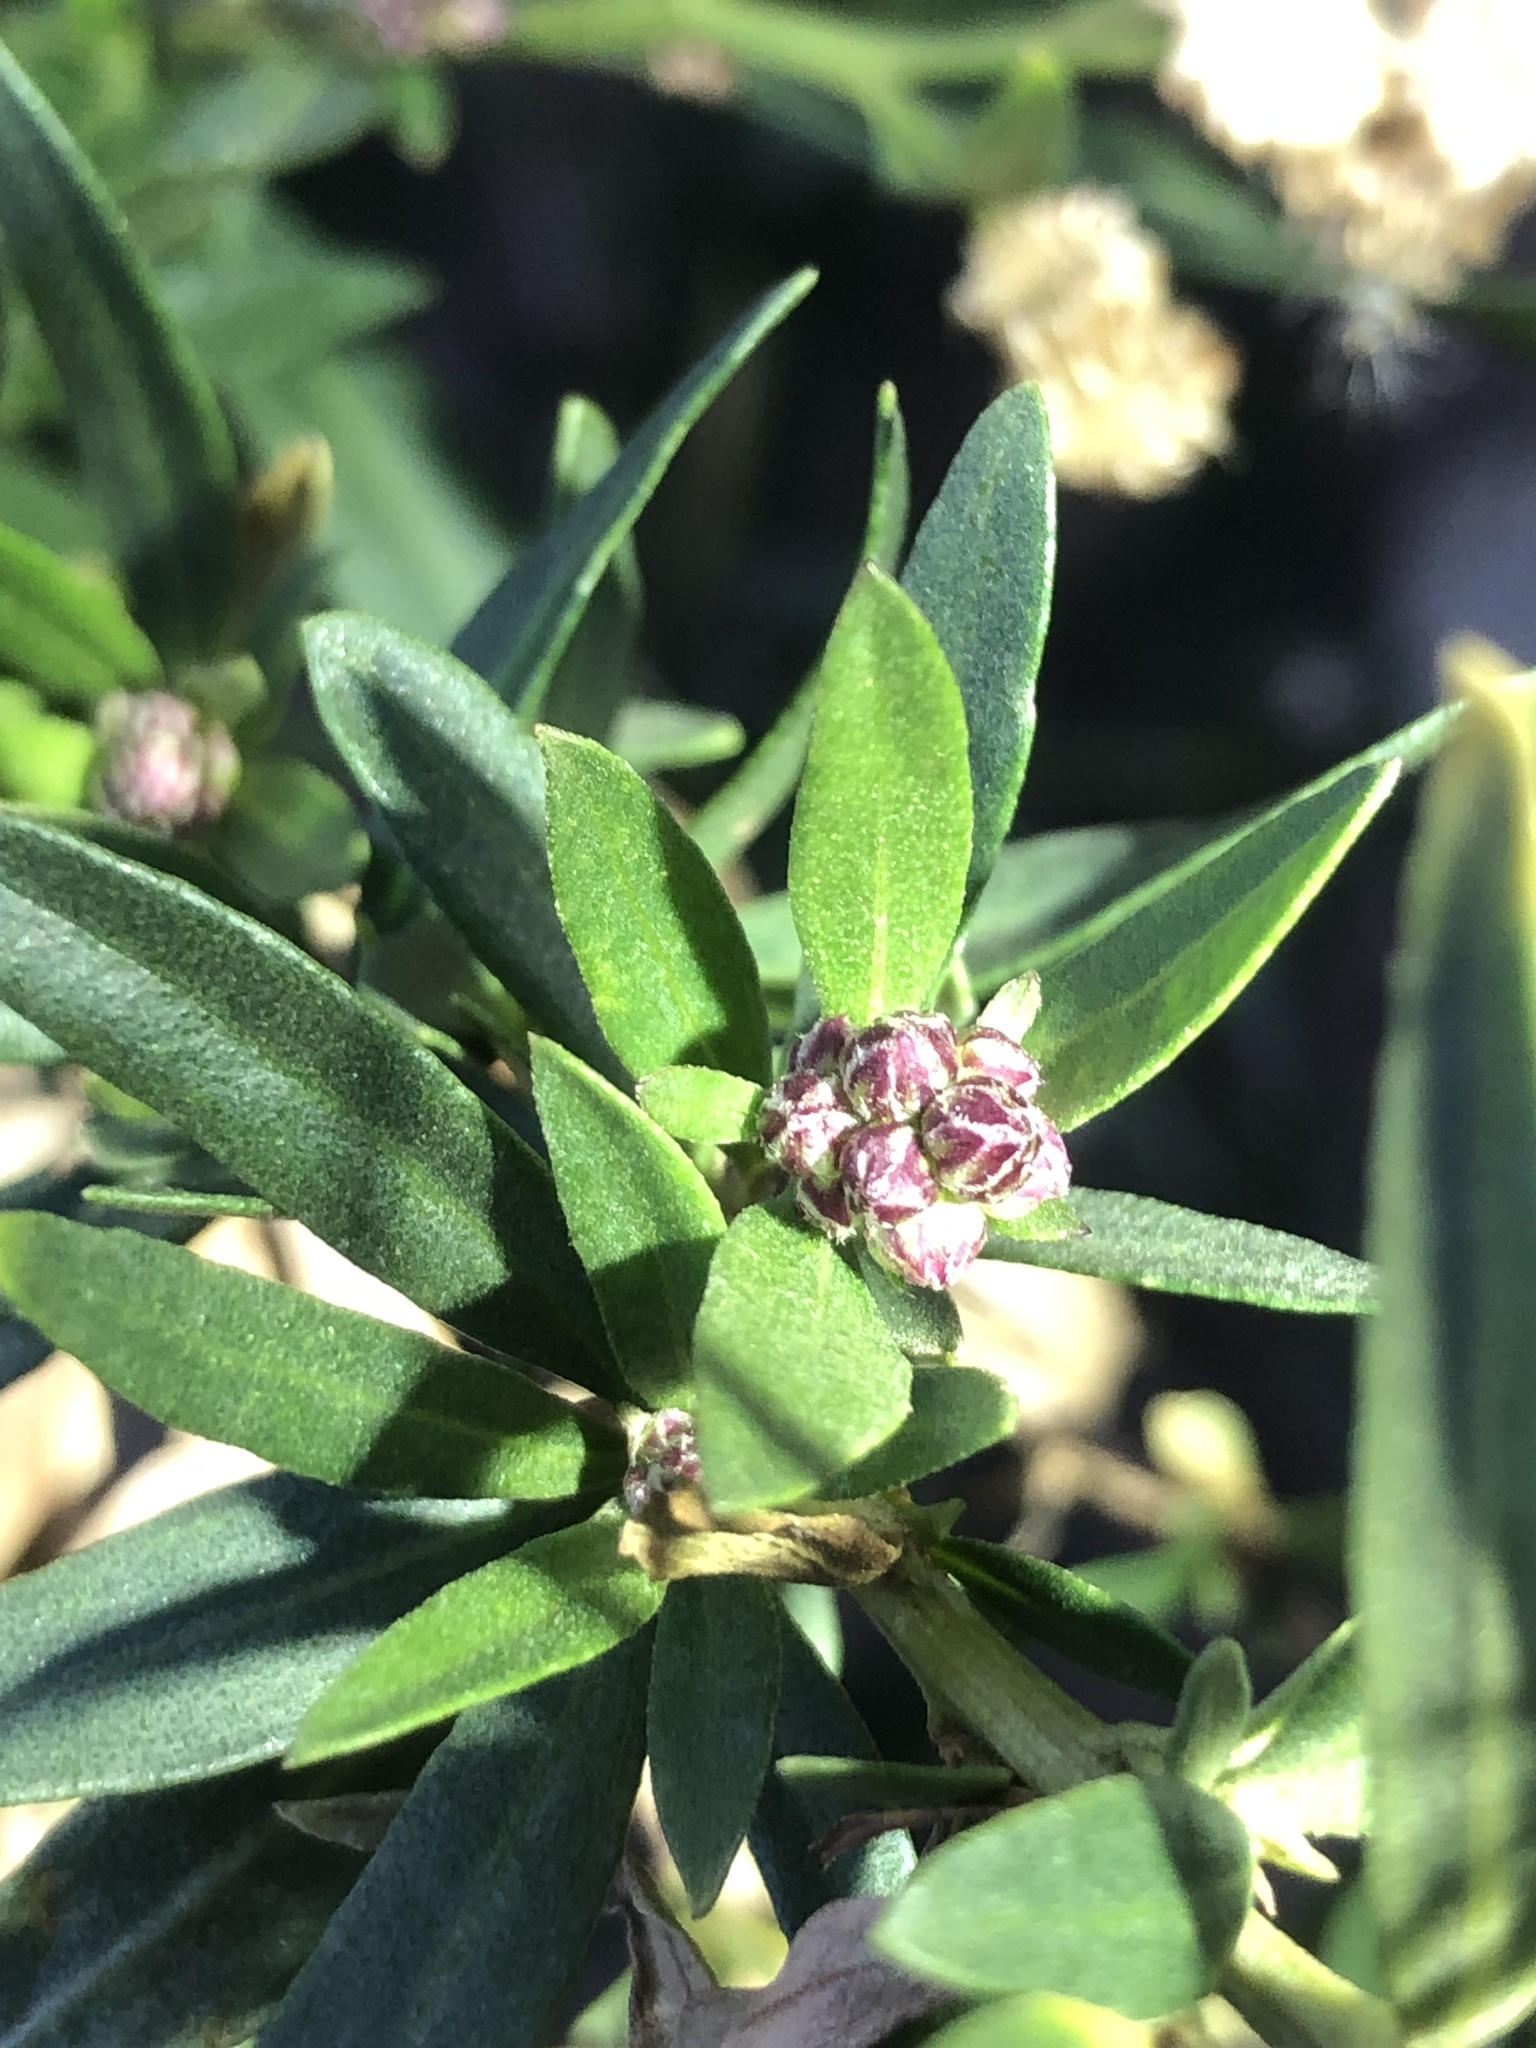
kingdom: Plantae
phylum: Tracheophyta
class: Magnoliopsida
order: Asterales
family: Asteraceae
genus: Baccharis
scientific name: Baccharis salicifolia
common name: Sticky baccharis
